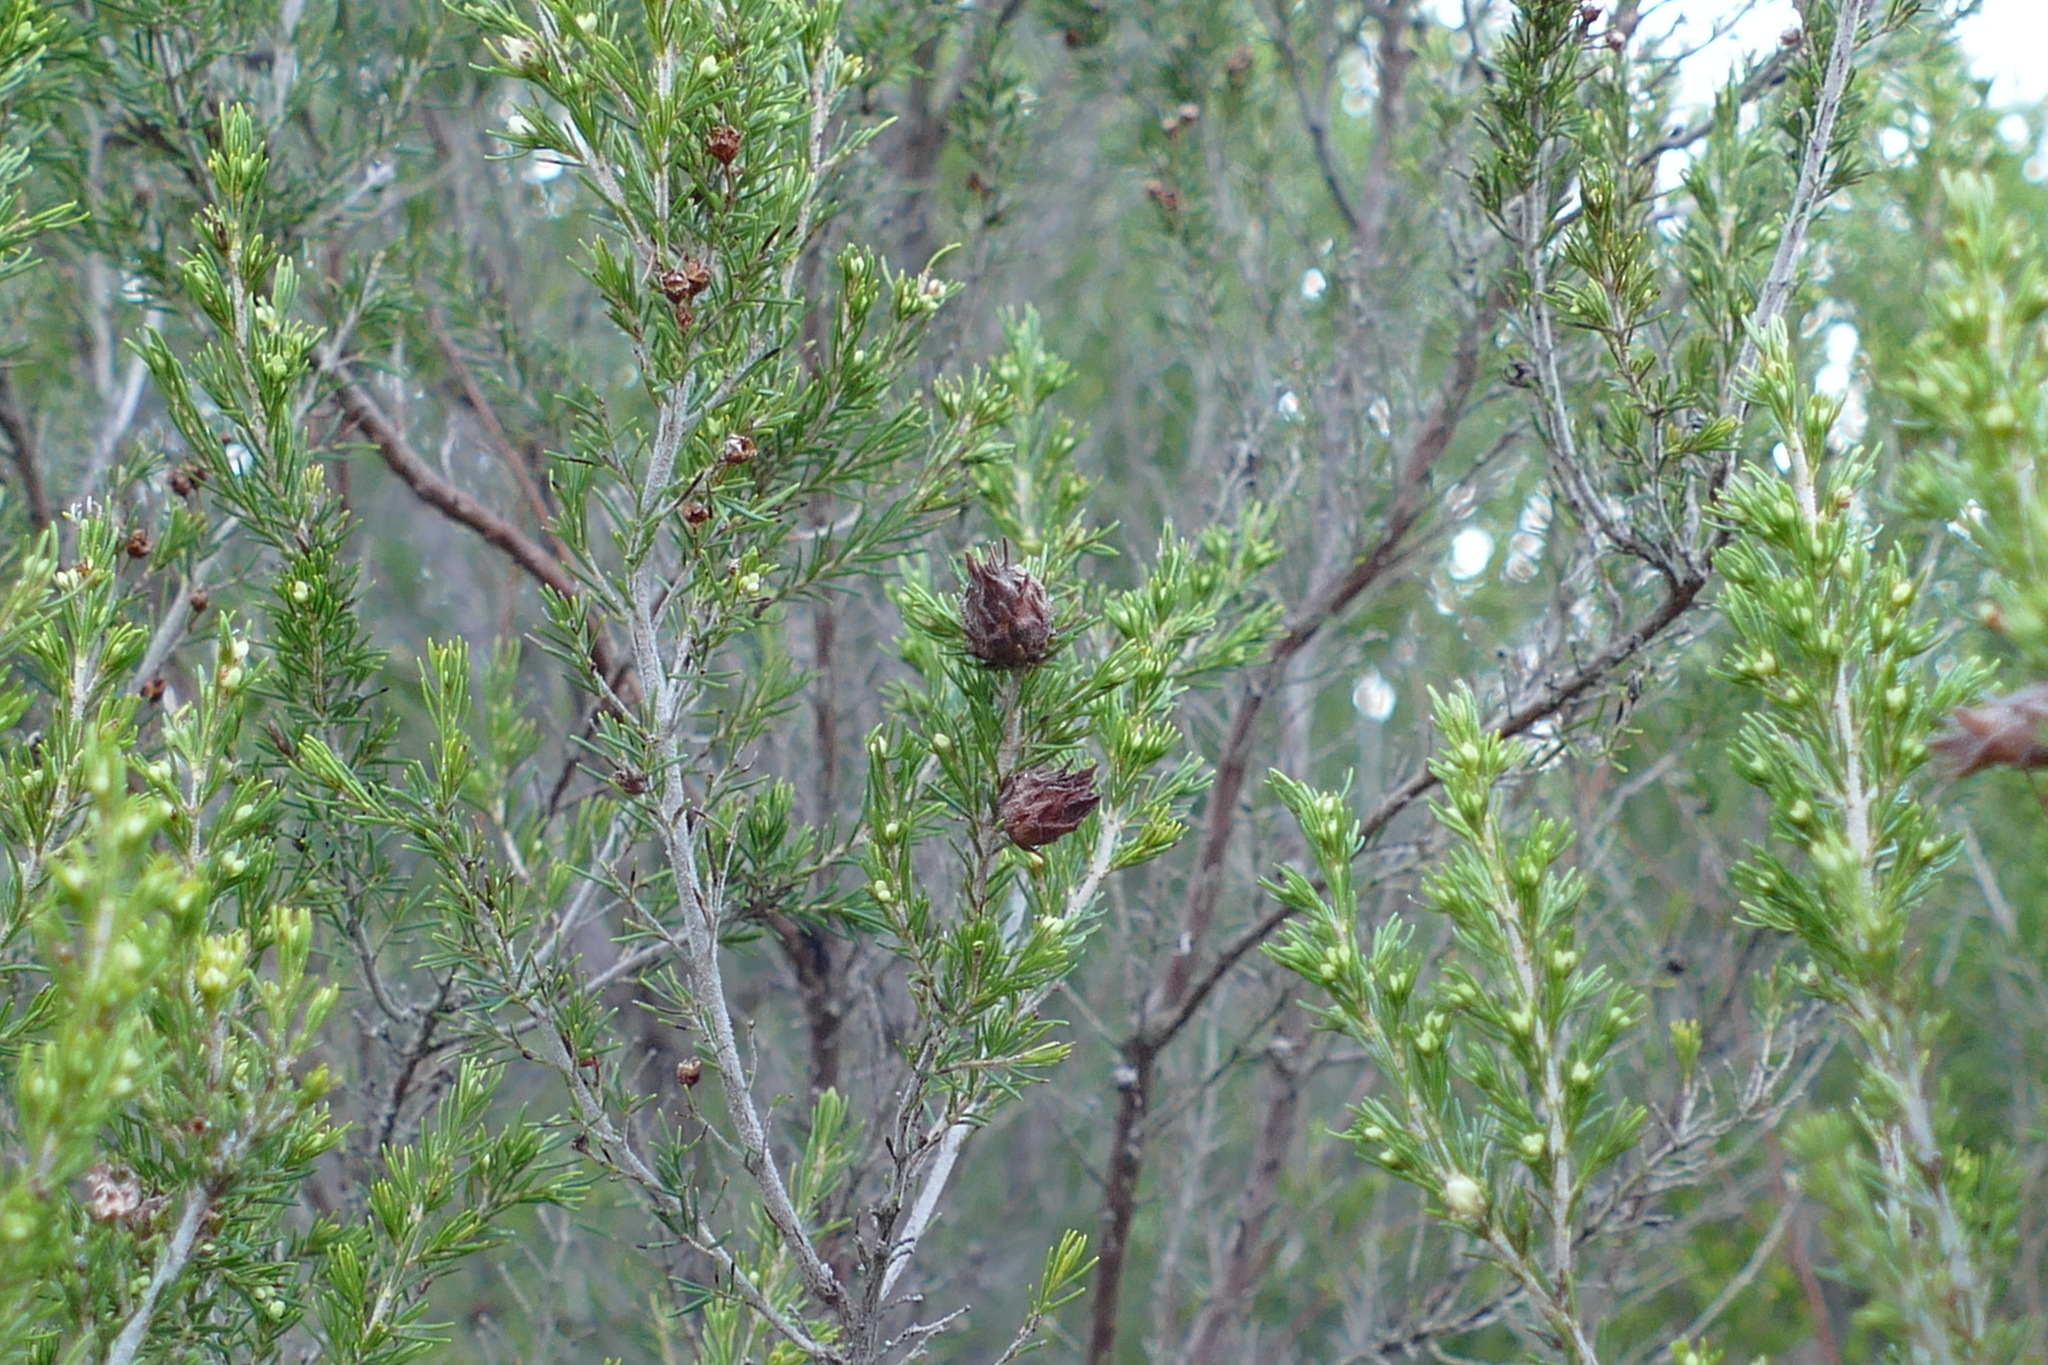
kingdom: Plantae
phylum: Tracheophyta
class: Magnoliopsida
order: Ericales
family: Ericaceae
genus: Erica
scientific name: Erica arborea
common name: Tree heath
